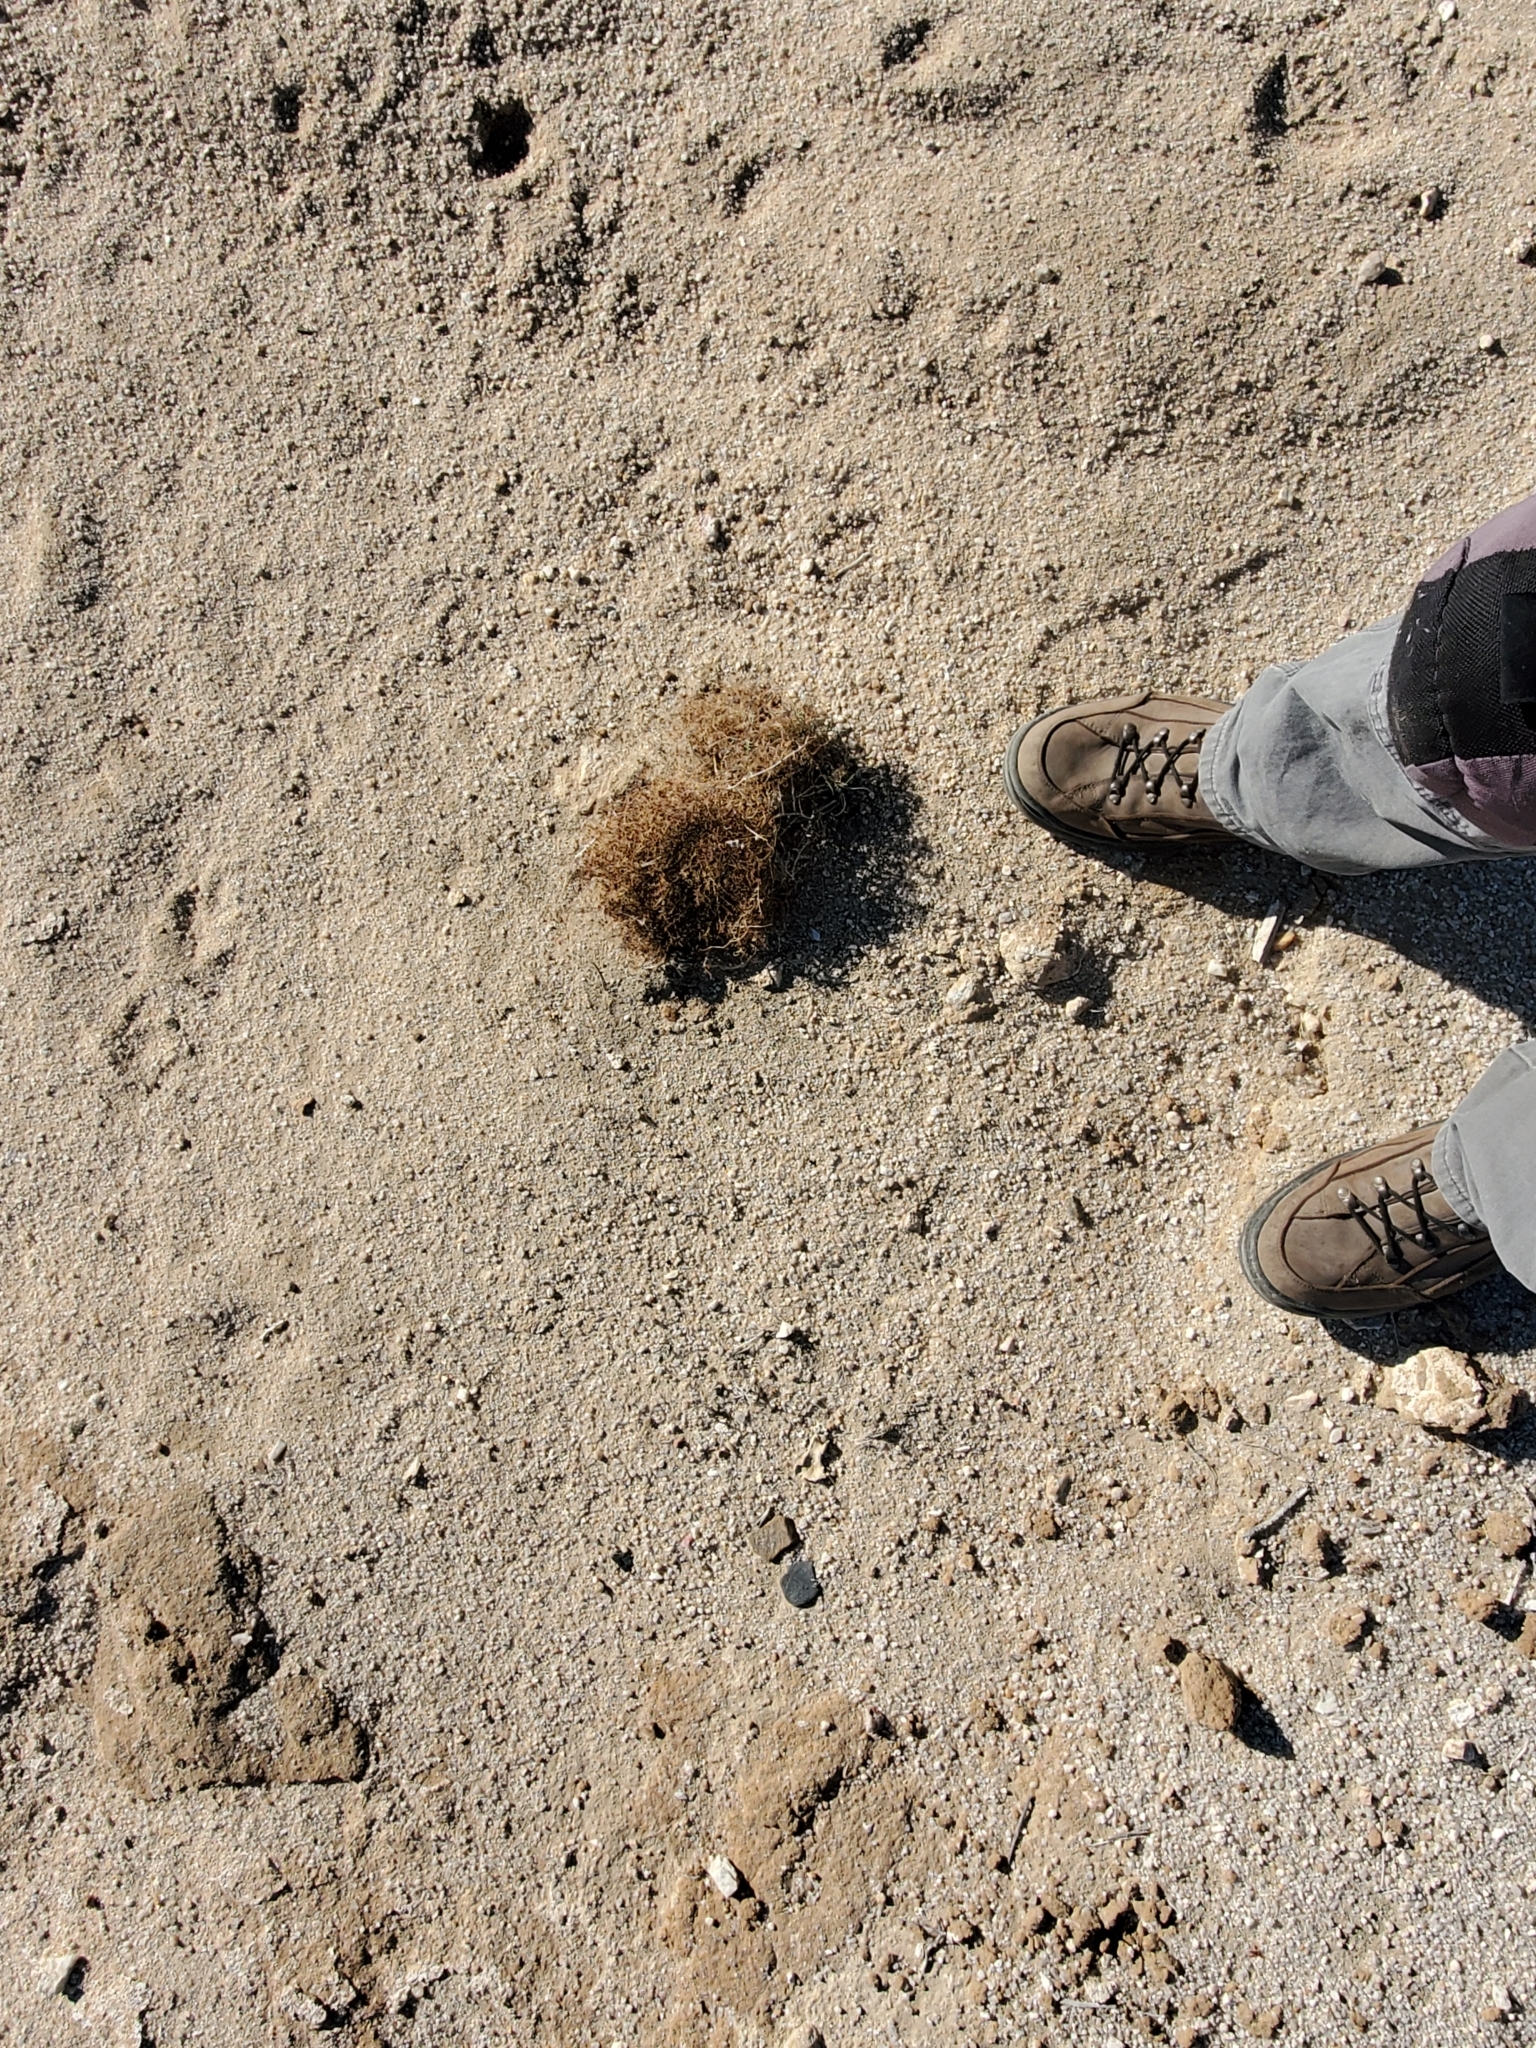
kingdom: Plantae
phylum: Tracheophyta
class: Magnoliopsida
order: Malpighiales
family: Euphorbiaceae
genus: Euphorbia
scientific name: Euphorbia polycarpa
